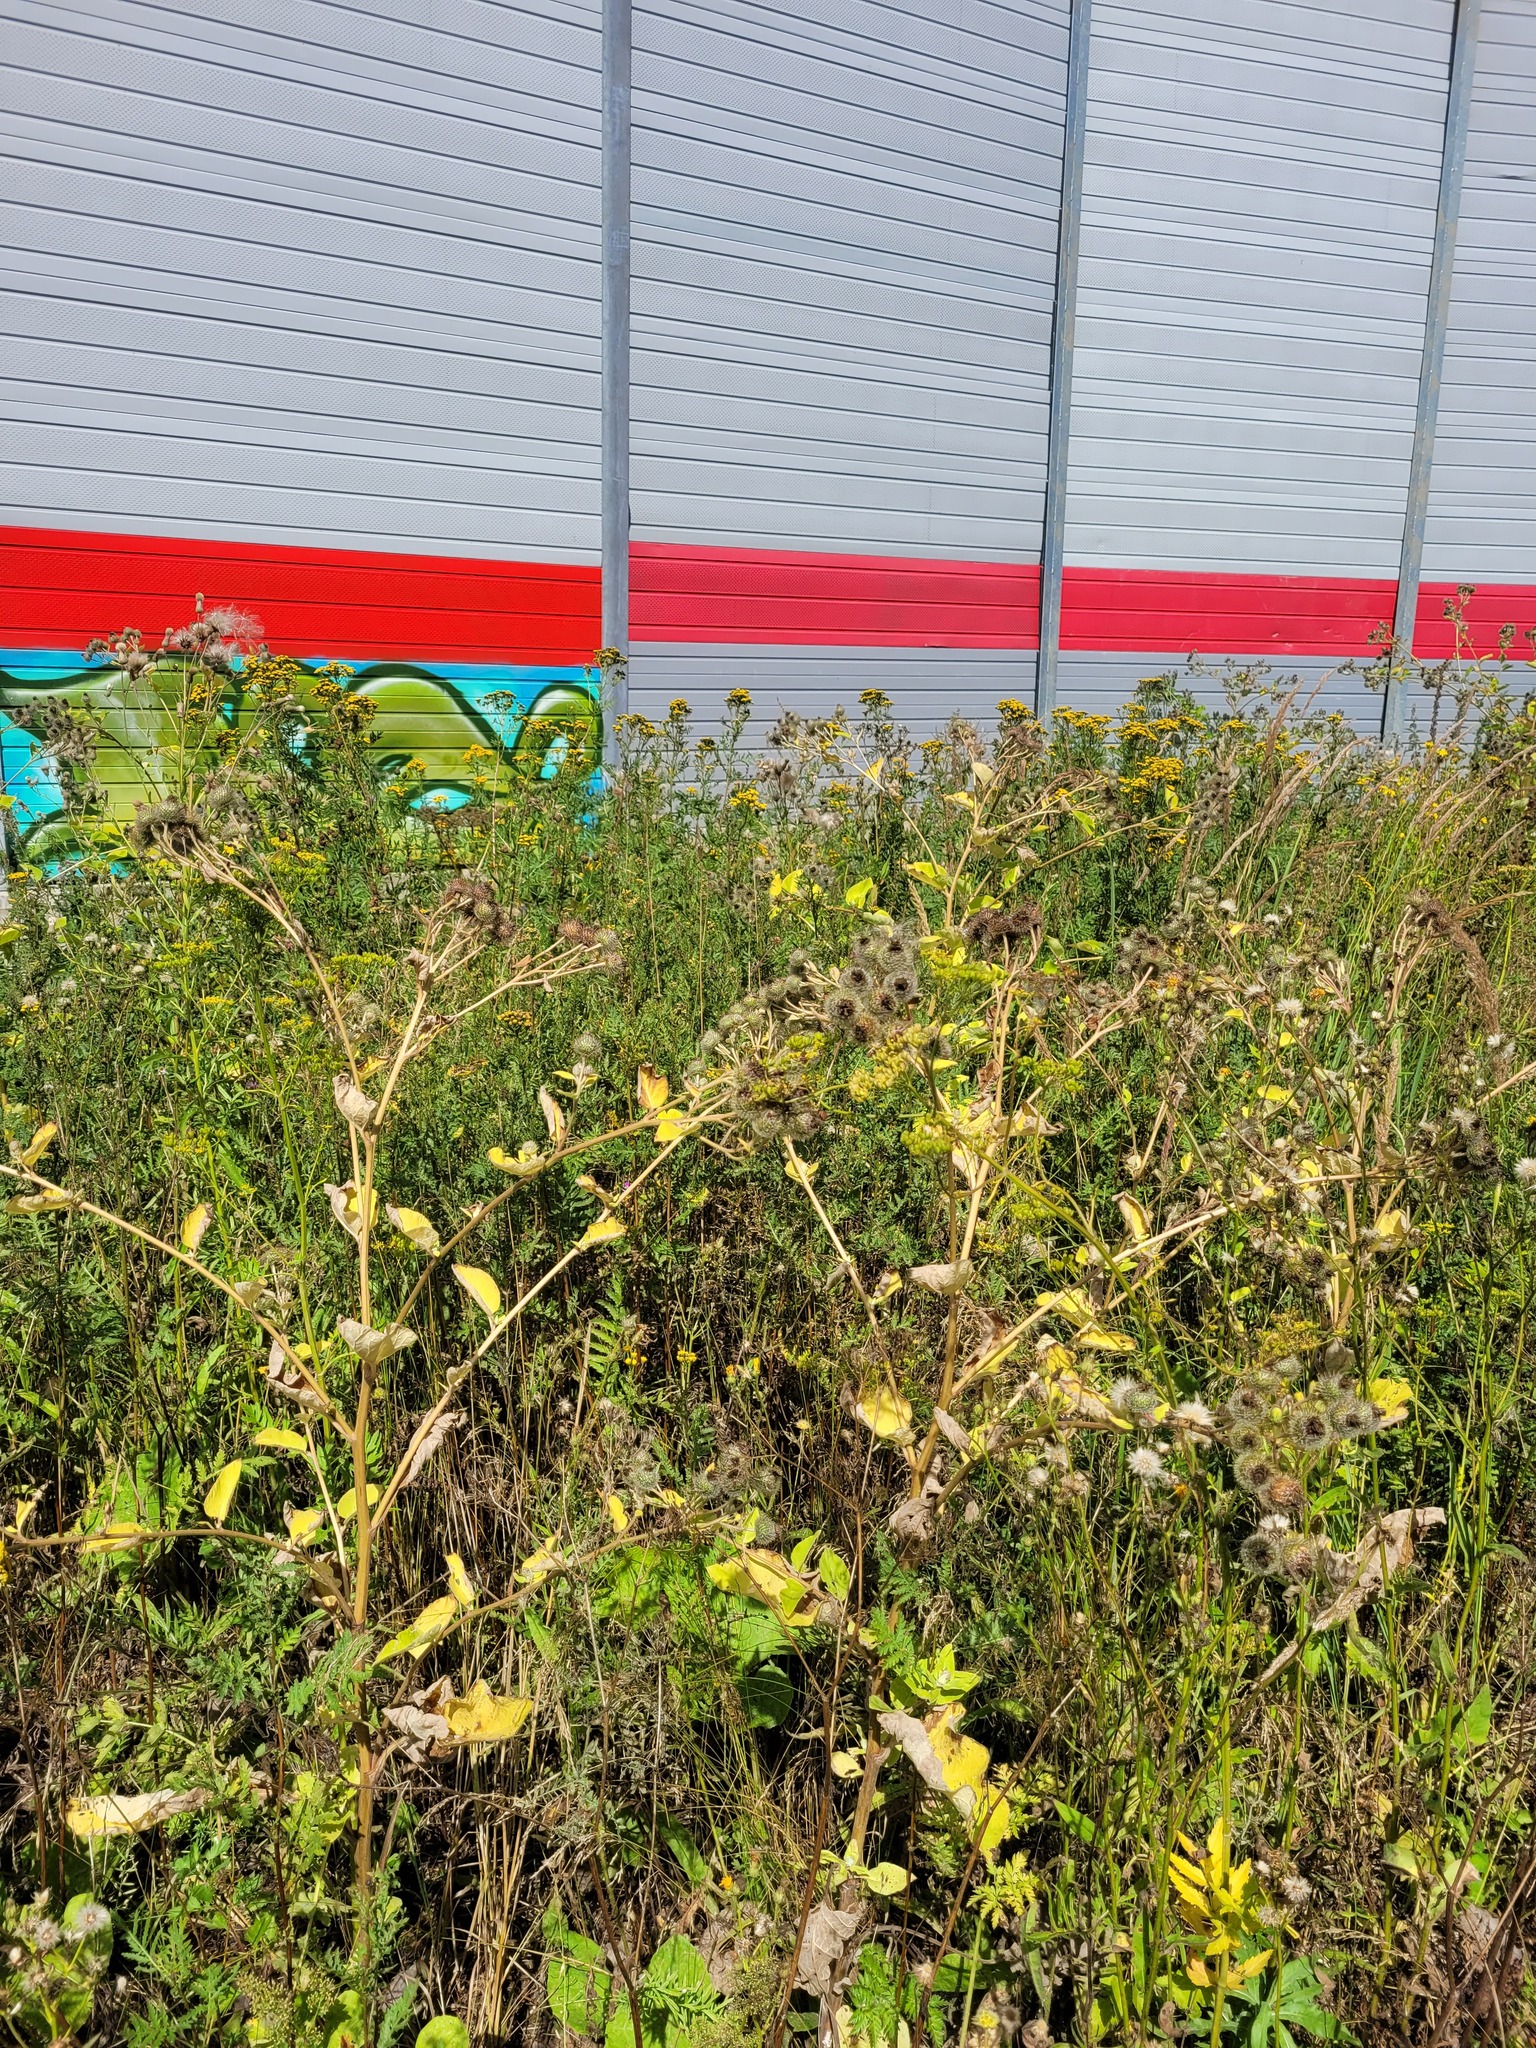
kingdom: Plantae
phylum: Tracheophyta
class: Magnoliopsida
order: Asterales
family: Asteraceae
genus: Arctium
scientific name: Arctium tomentosum
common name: Woolly burdock
